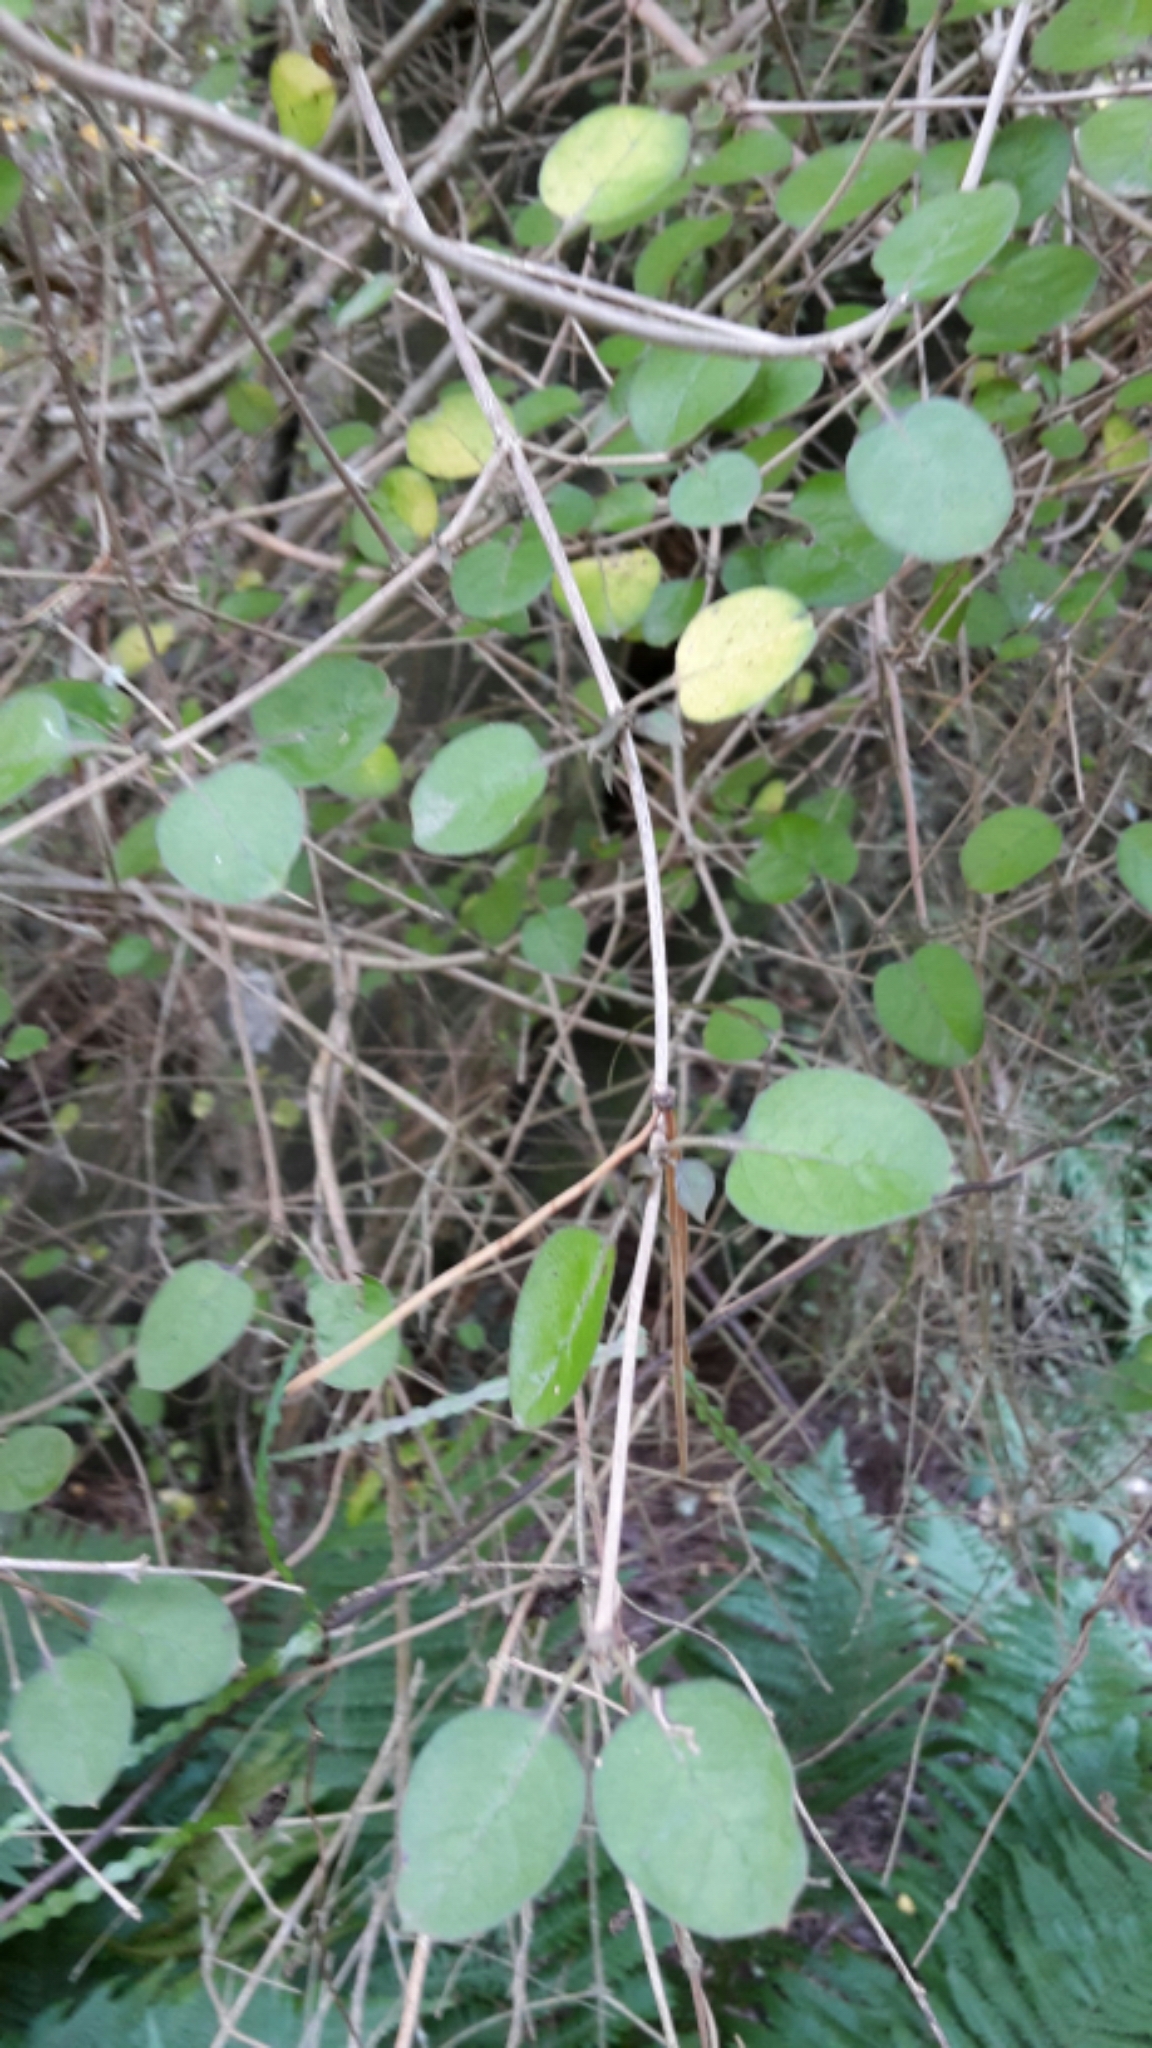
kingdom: Plantae
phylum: Tracheophyta
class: Magnoliopsida
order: Gentianales
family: Rubiaceae
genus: Coprosma
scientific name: Coprosma rotundifolia
